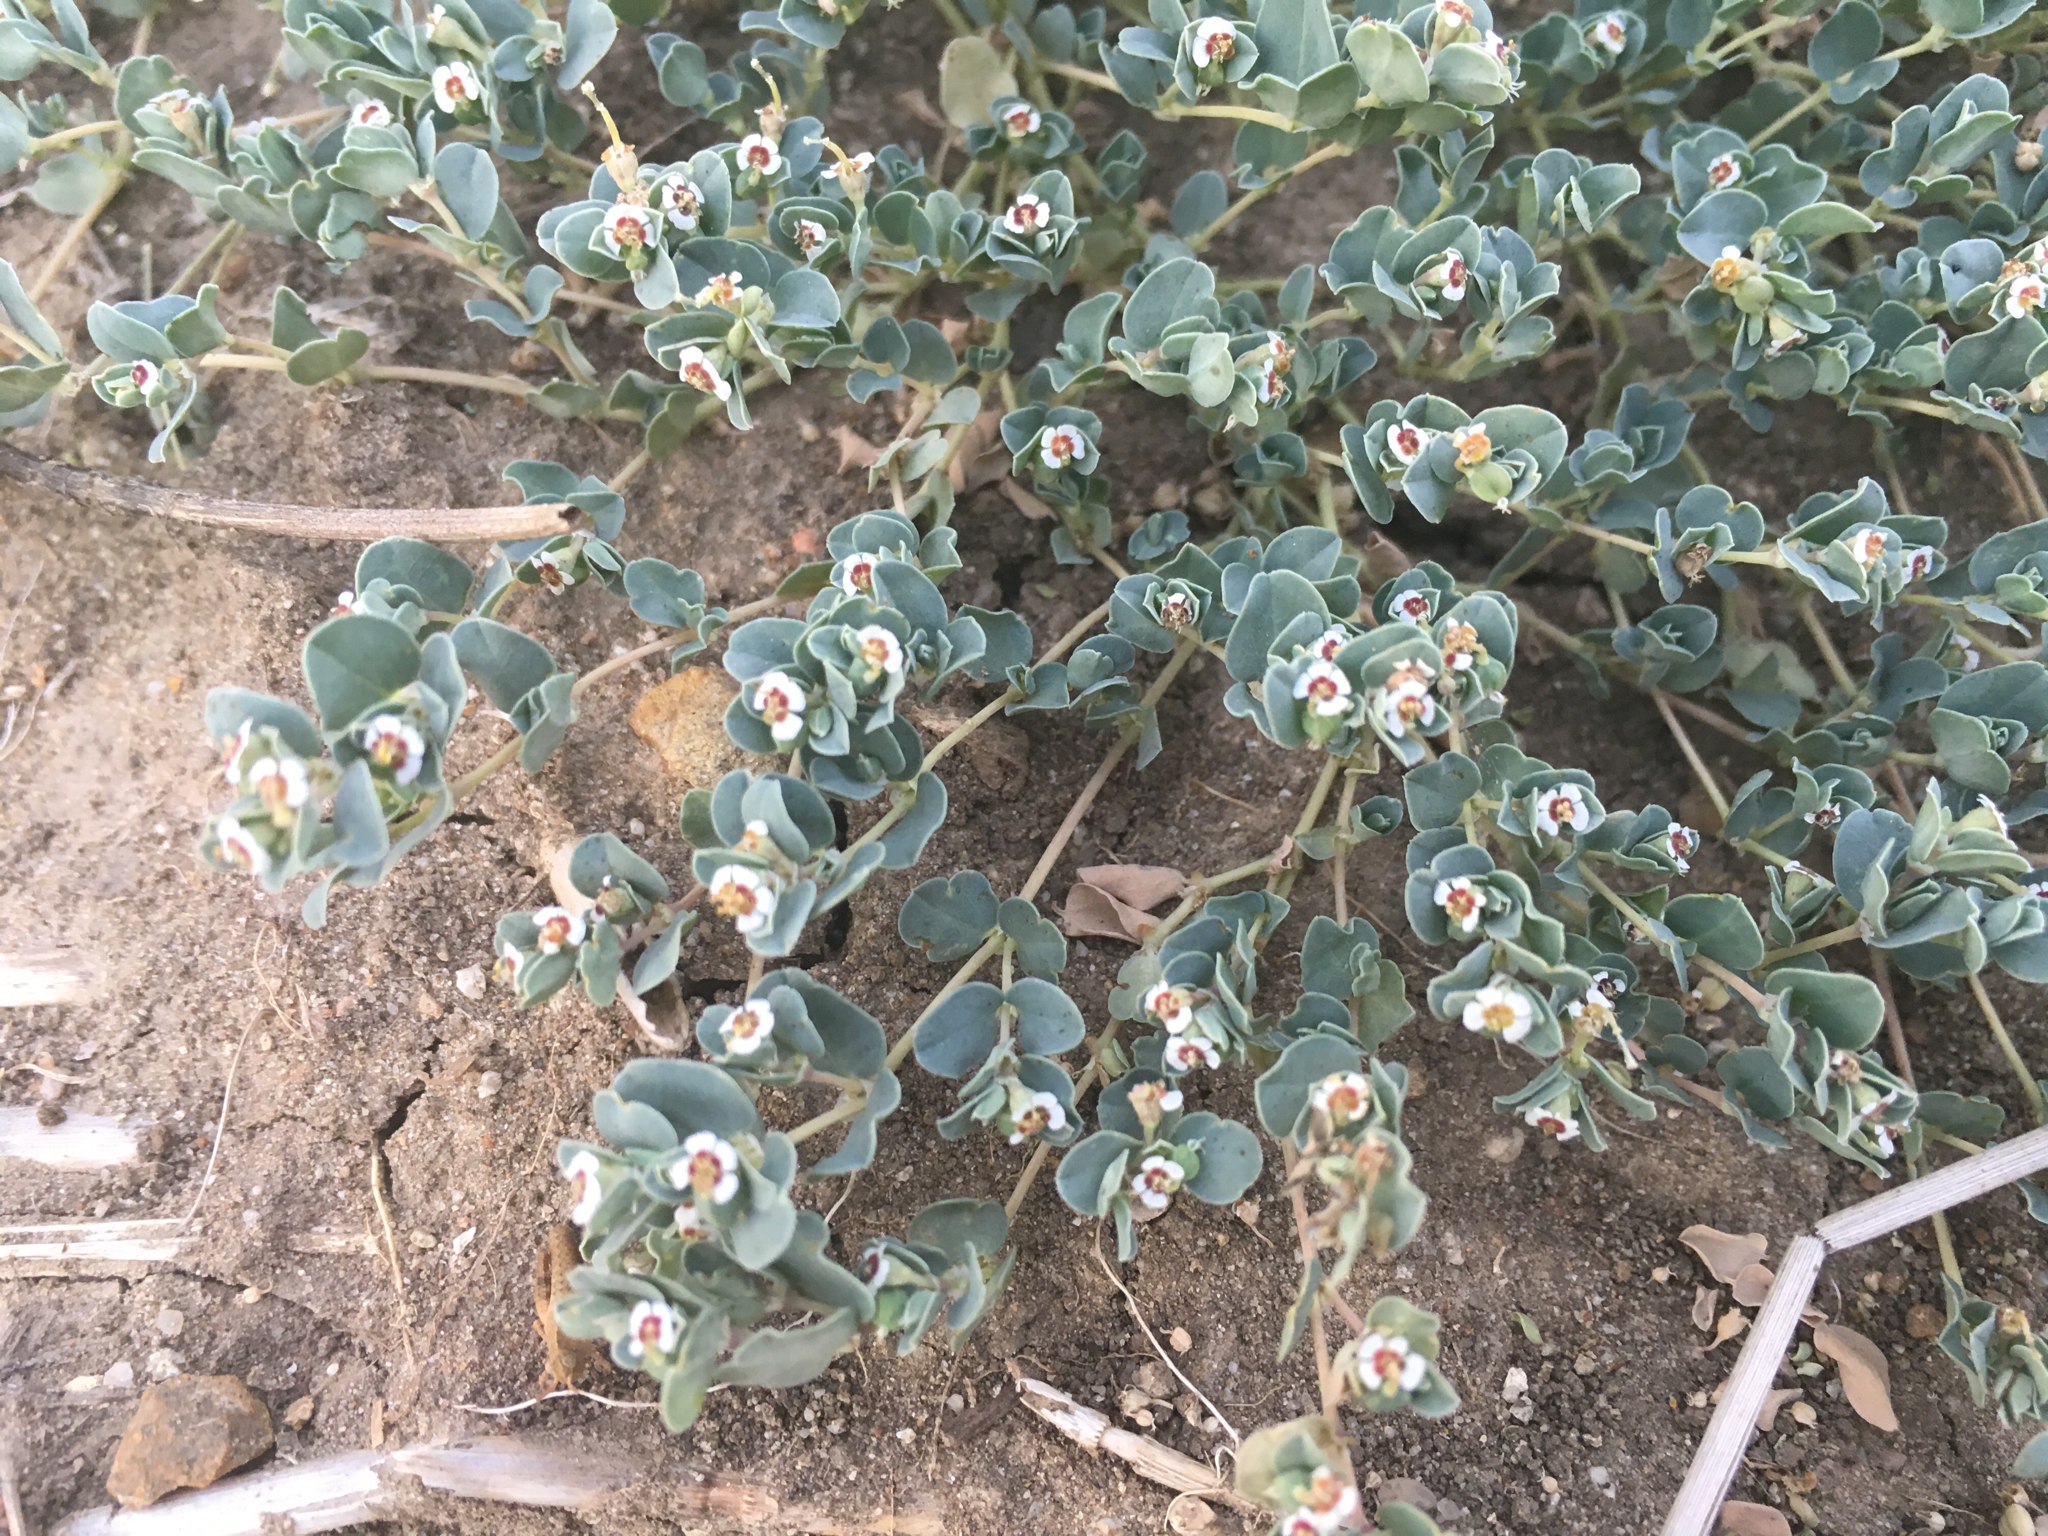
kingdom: Plantae
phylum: Tracheophyta
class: Magnoliopsida
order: Malpighiales
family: Euphorbiaceae
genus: Euphorbia
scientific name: Euphorbia albomarginata
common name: Whitemargin sandmat
